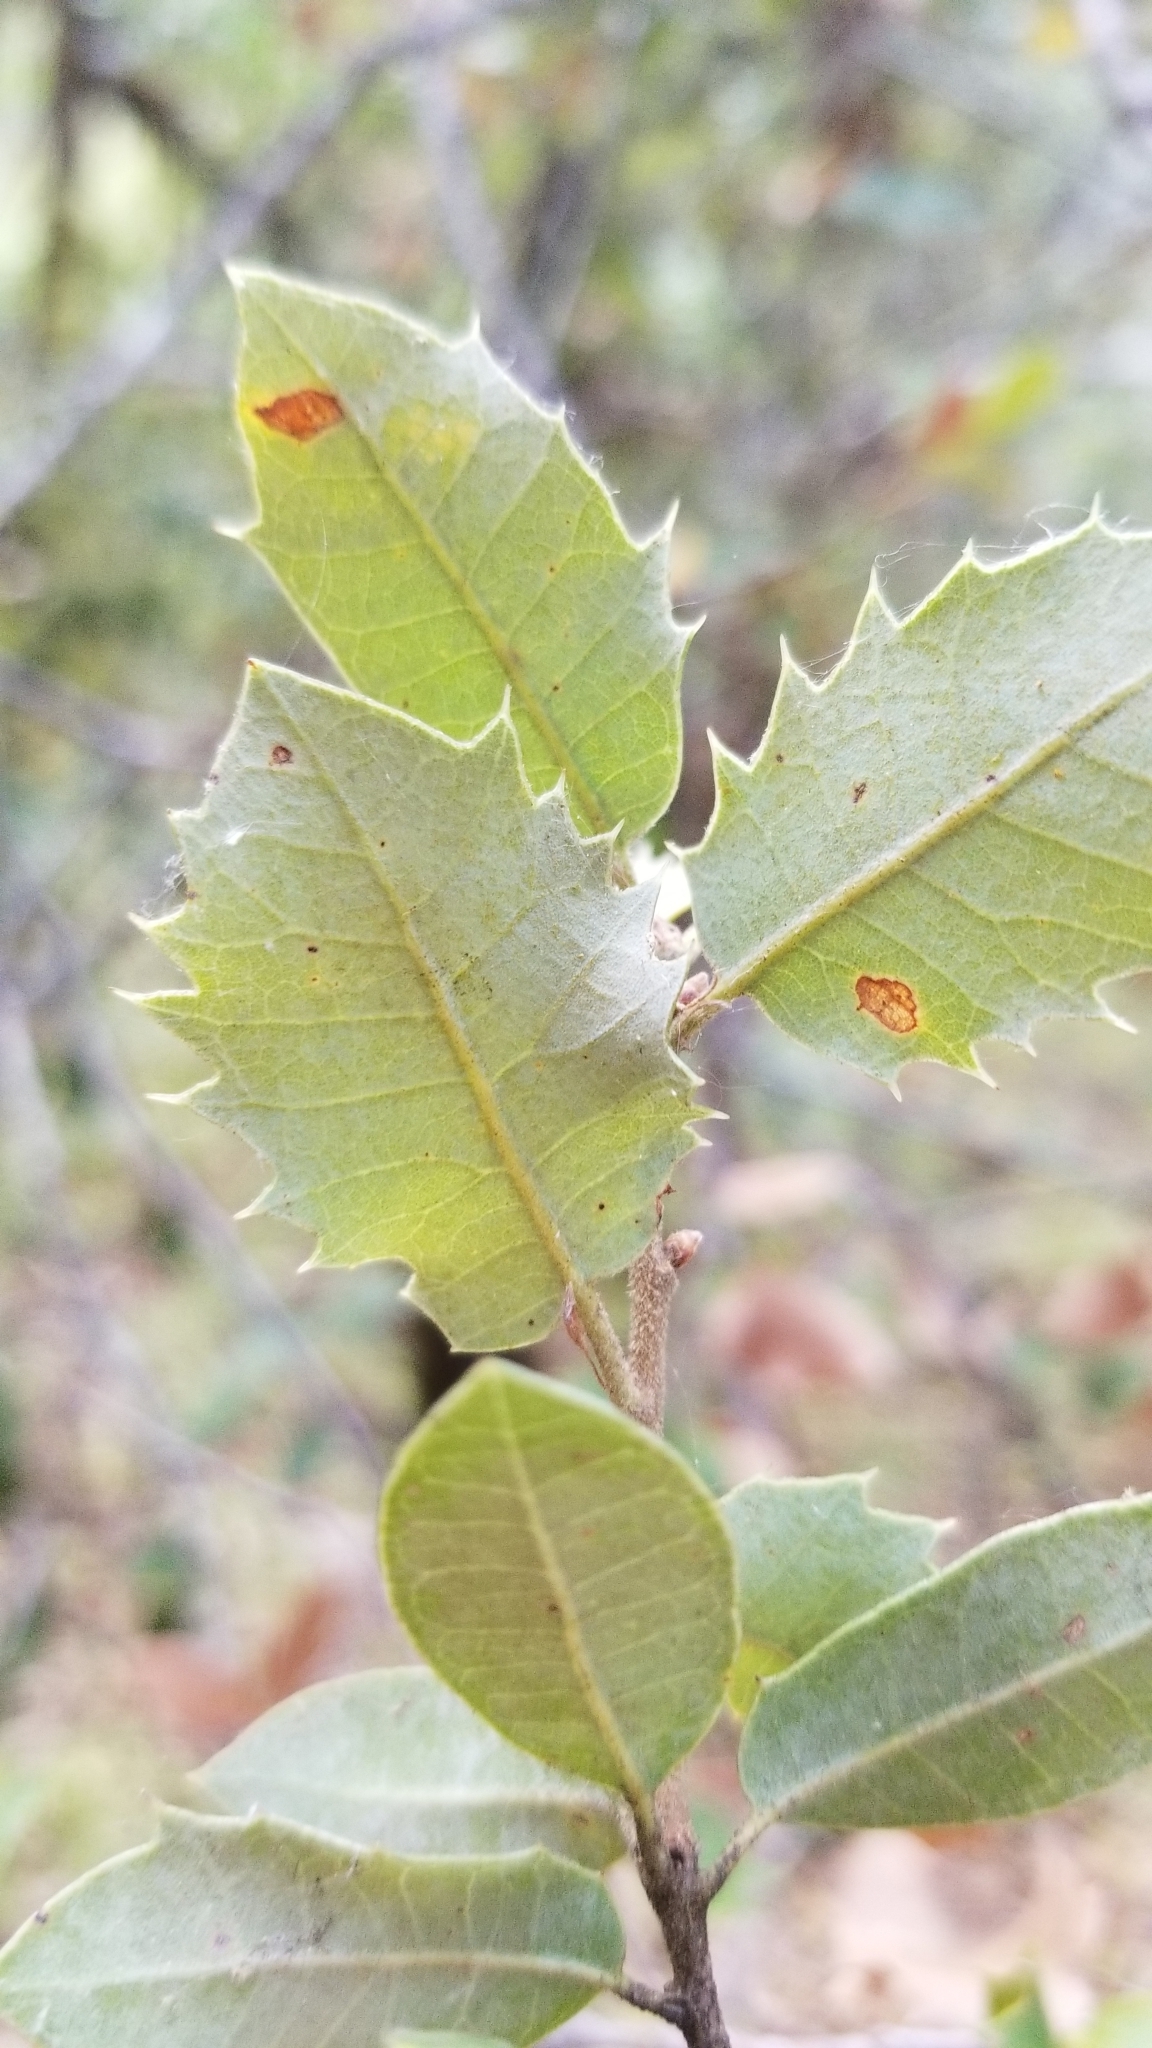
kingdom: Plantae
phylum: Tracheophyta
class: Magnoliopsida
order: Fagales
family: Fagaceae
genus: Quercus
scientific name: Quercus chrysolepis
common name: Canyon live oak
